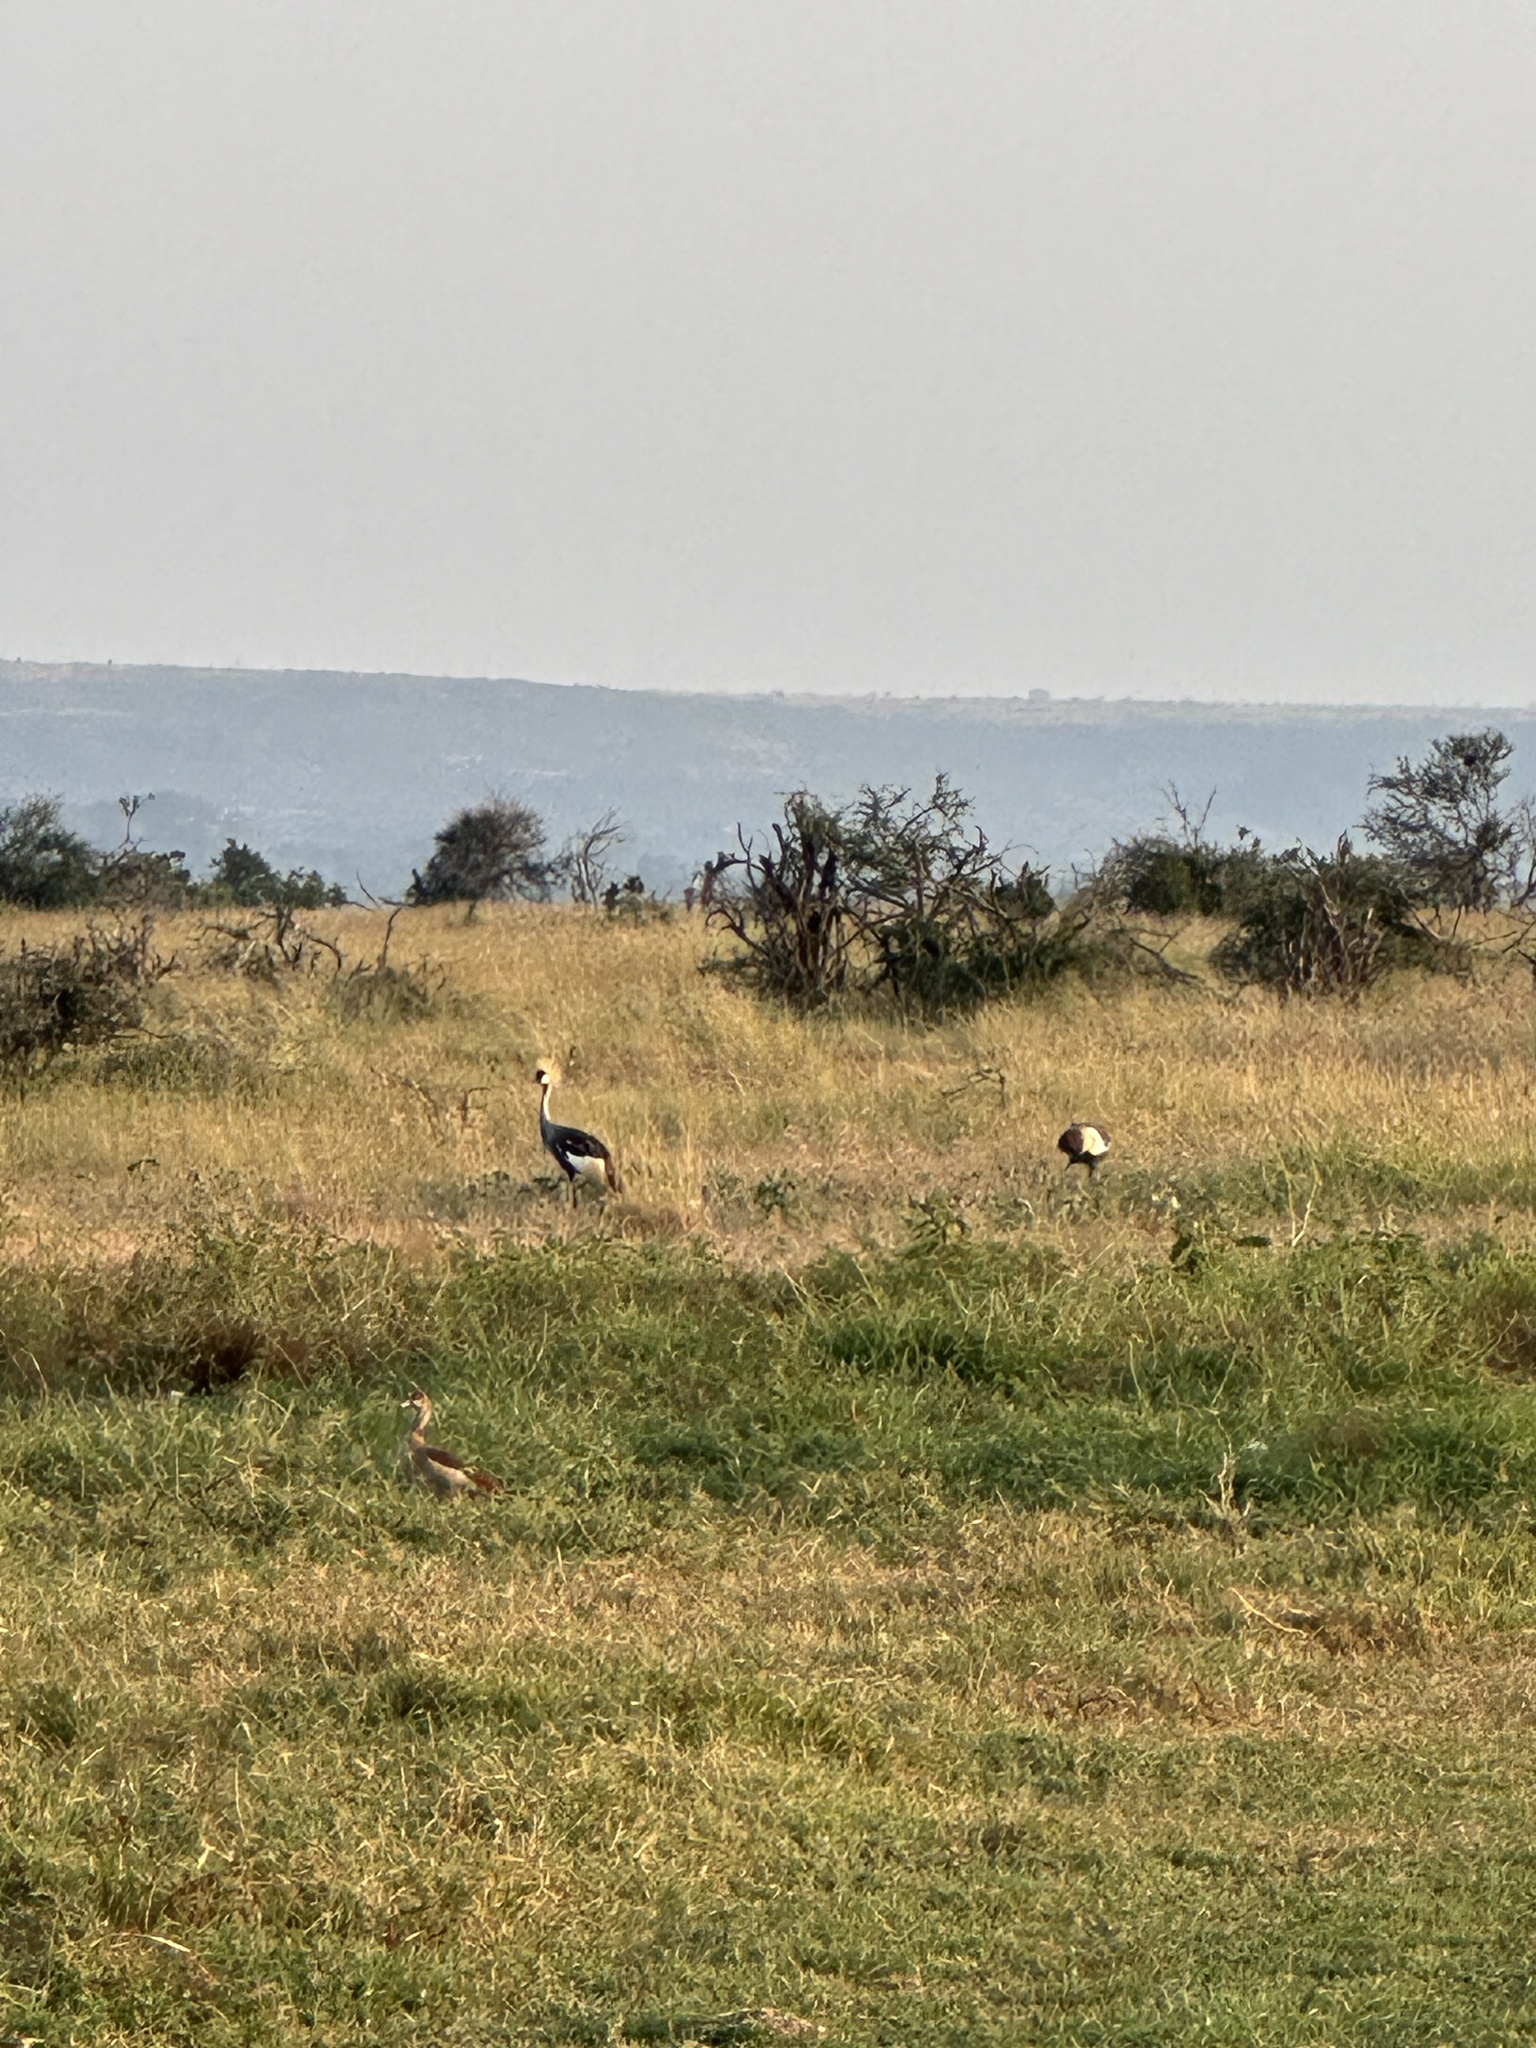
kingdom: Animalia
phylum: Chordata
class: Aves
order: Gruiformes
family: Gruidae
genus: Balearica
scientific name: Balearica regulorum
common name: Grey crowned crane
